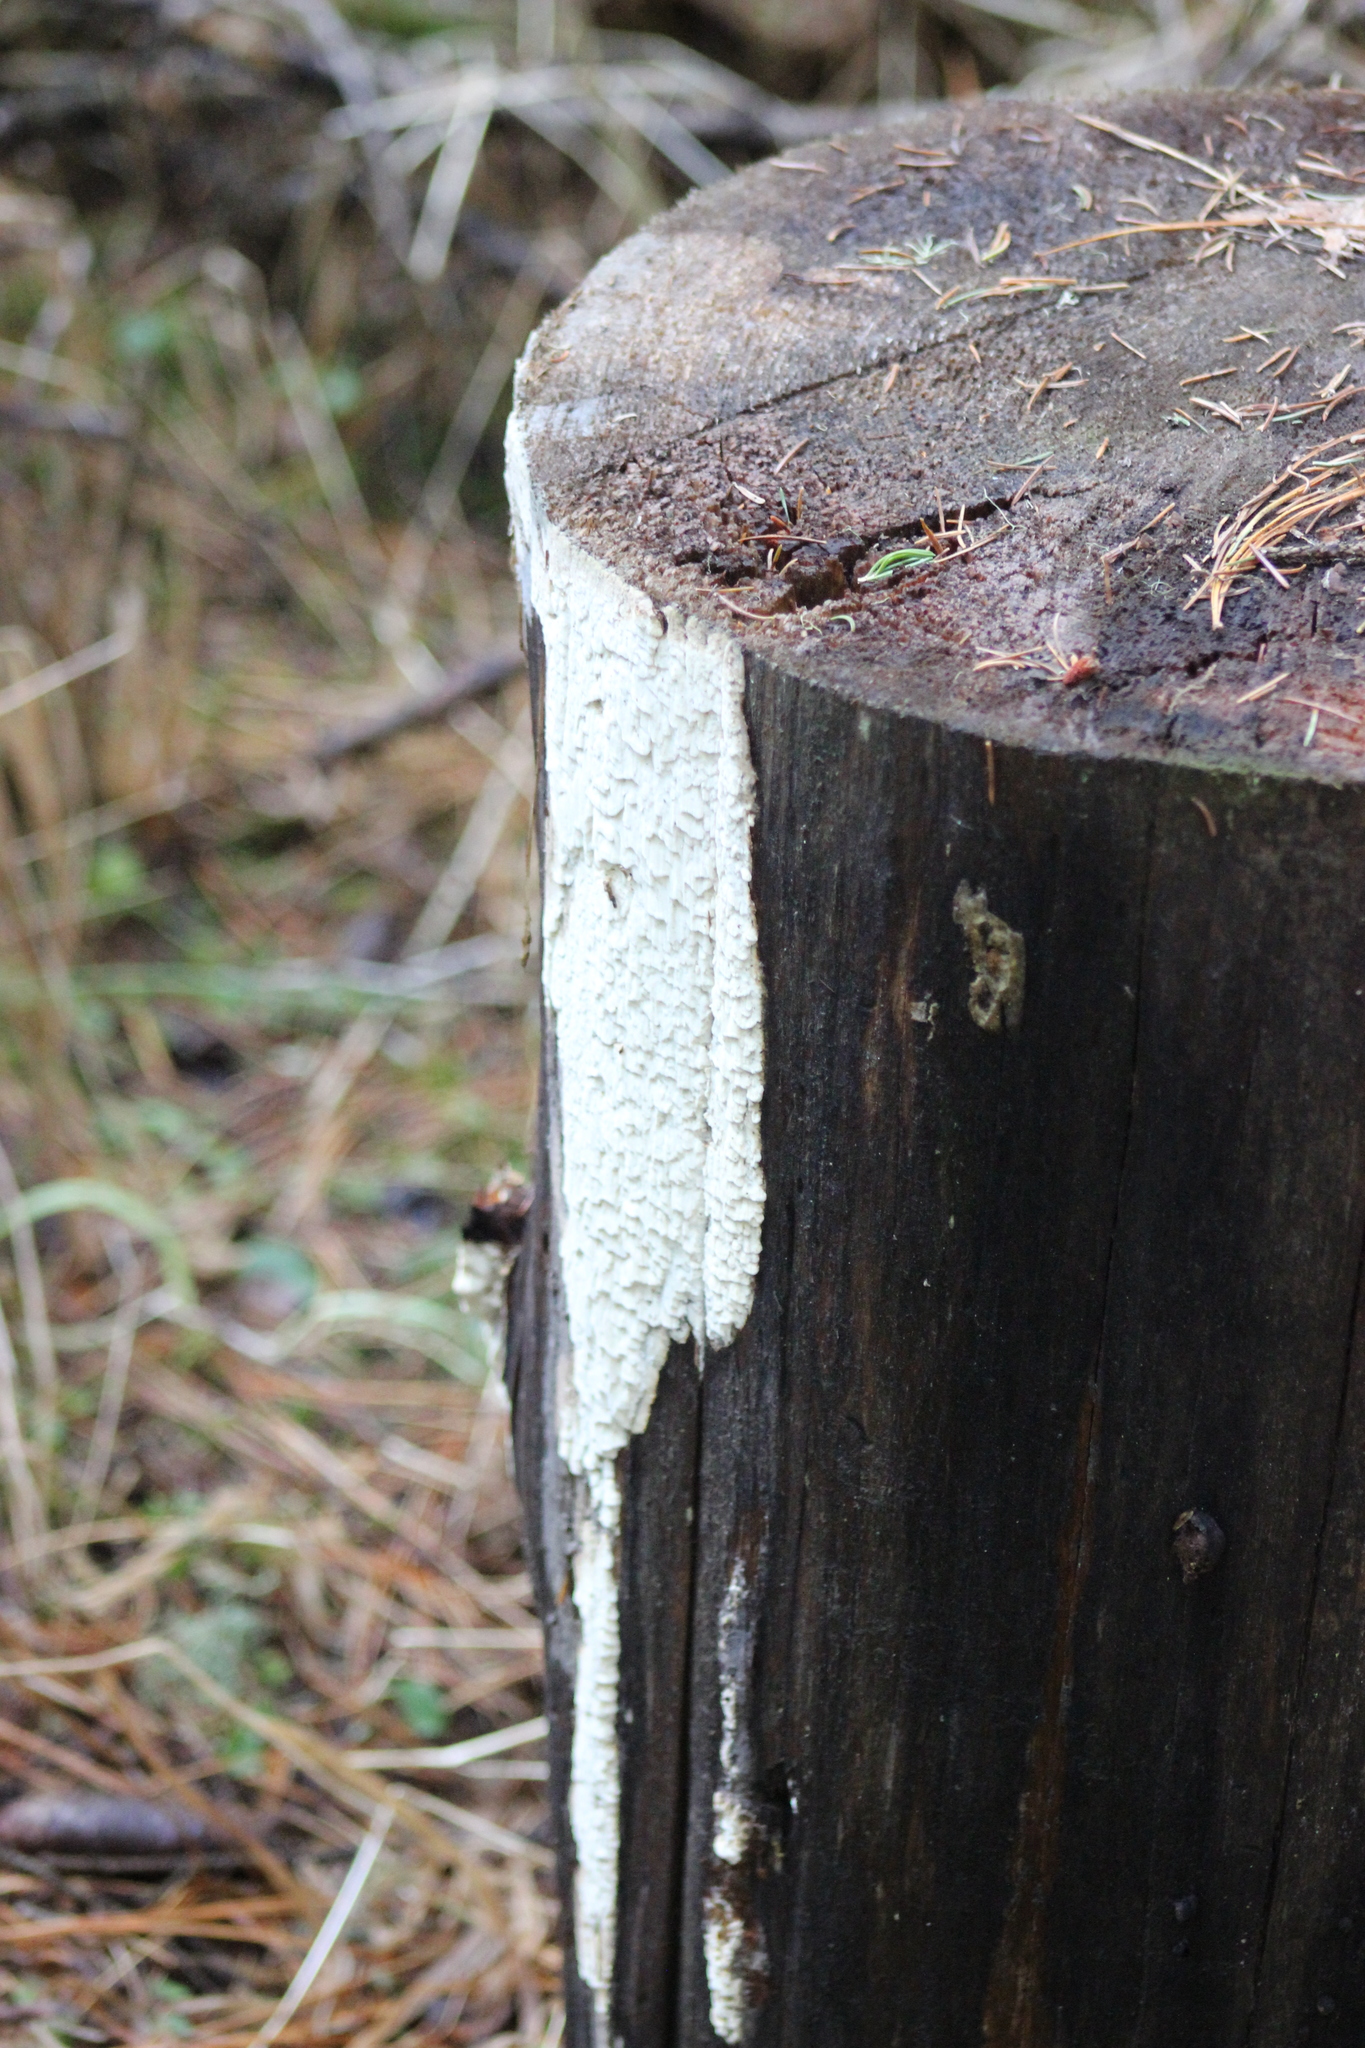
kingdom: Fungi
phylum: Basidiomycota
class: Agaricomycetes
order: Polyporales
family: Fomitopsidaceae
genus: Daedalea
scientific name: Daedalea xantha
